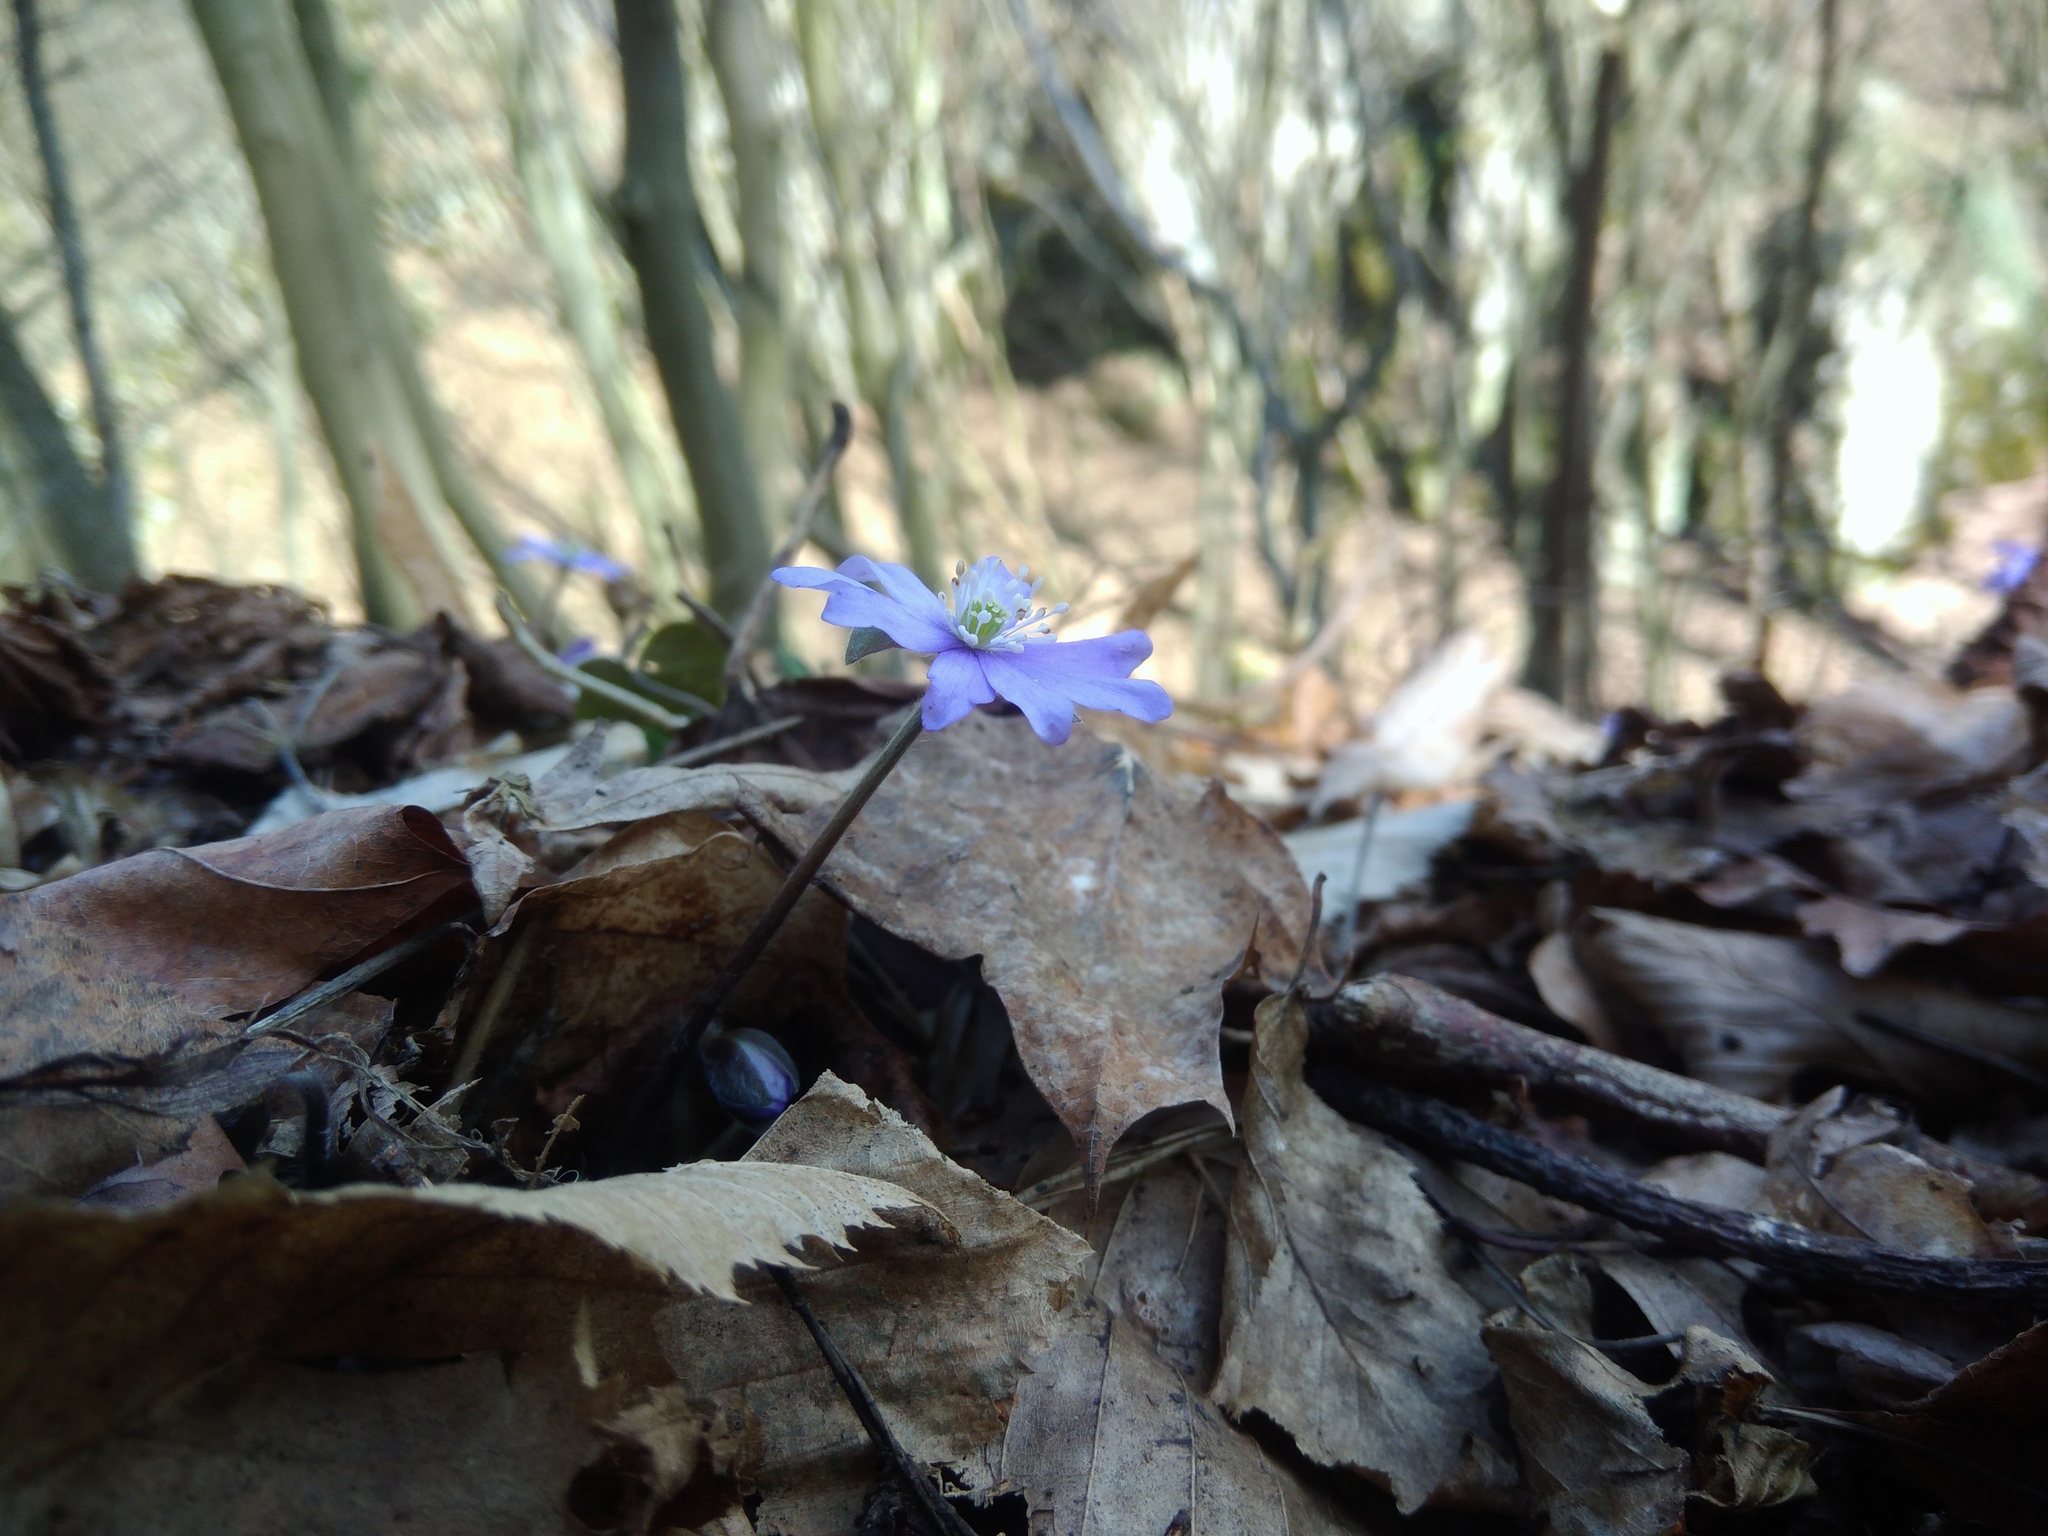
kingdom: Plantae
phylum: Tracheophyta
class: Magnoliopsida
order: Ranunculales
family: Ranunculaceae
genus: Hepatica
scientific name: Hepatica nobilis
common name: Liverleaf
